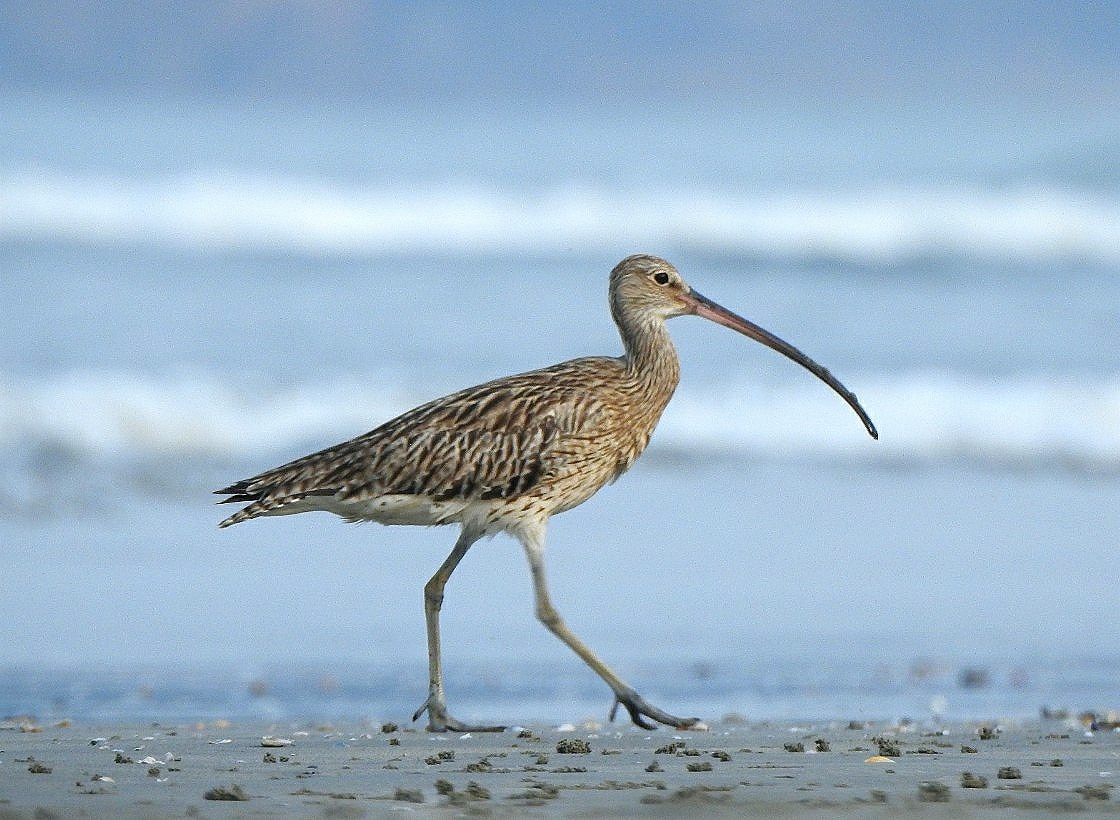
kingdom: Animalia
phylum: Chordata
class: Aves
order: Charadriiformes
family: Scolopacidae
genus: Numenius
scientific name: Numenius arquata
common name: Eurasian curlew
